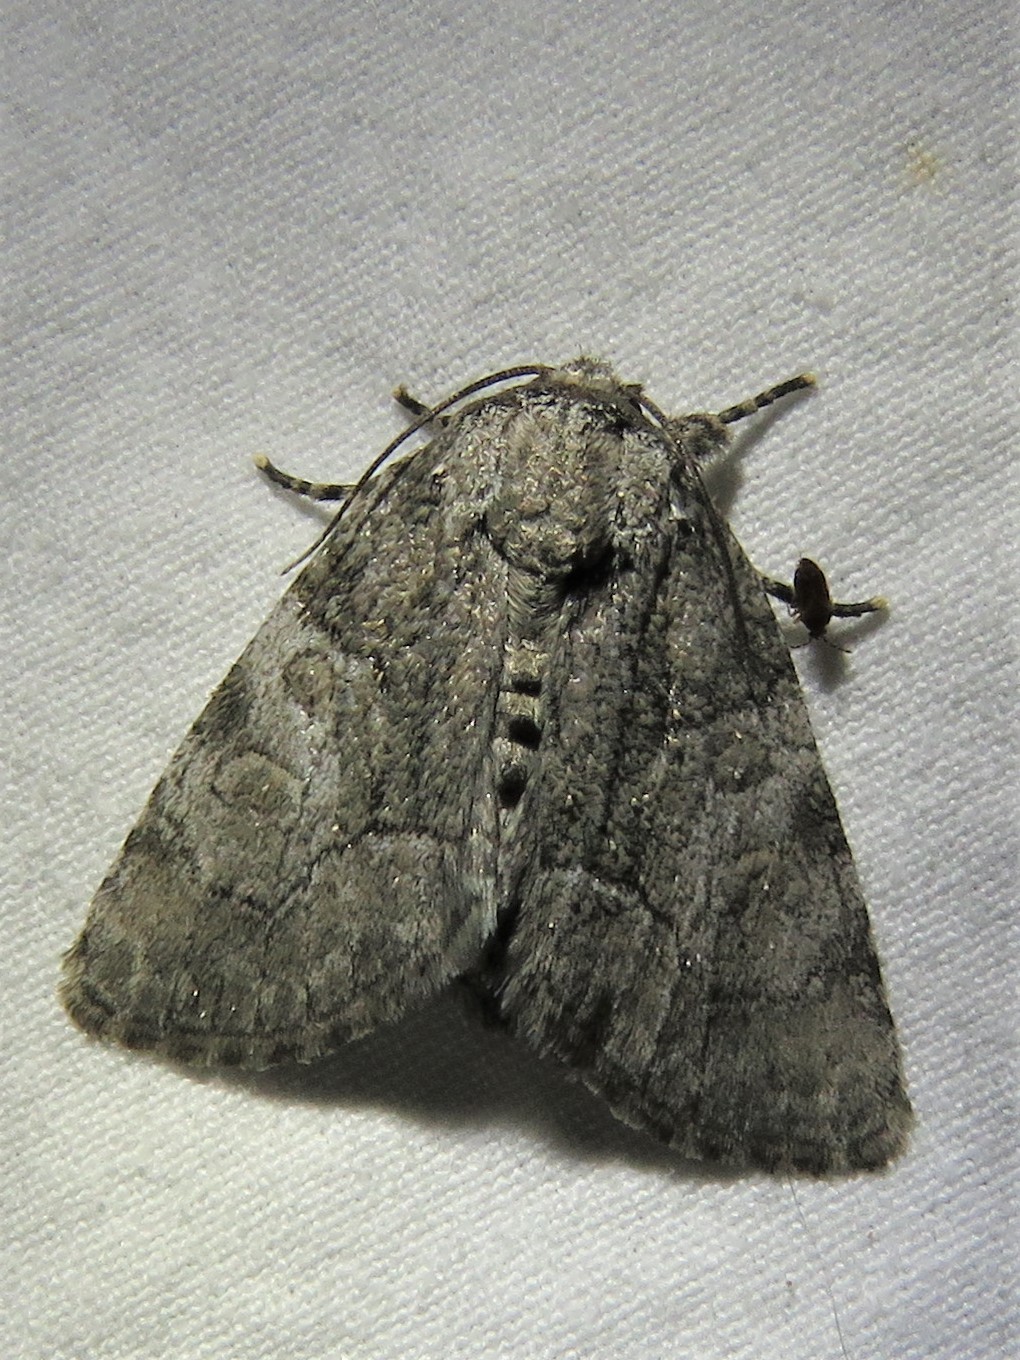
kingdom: Animalia
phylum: Arthropoda
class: Insecta
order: Lepidoptera
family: Noctuidae
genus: Raphia
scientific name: Raphia frater
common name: Brother
